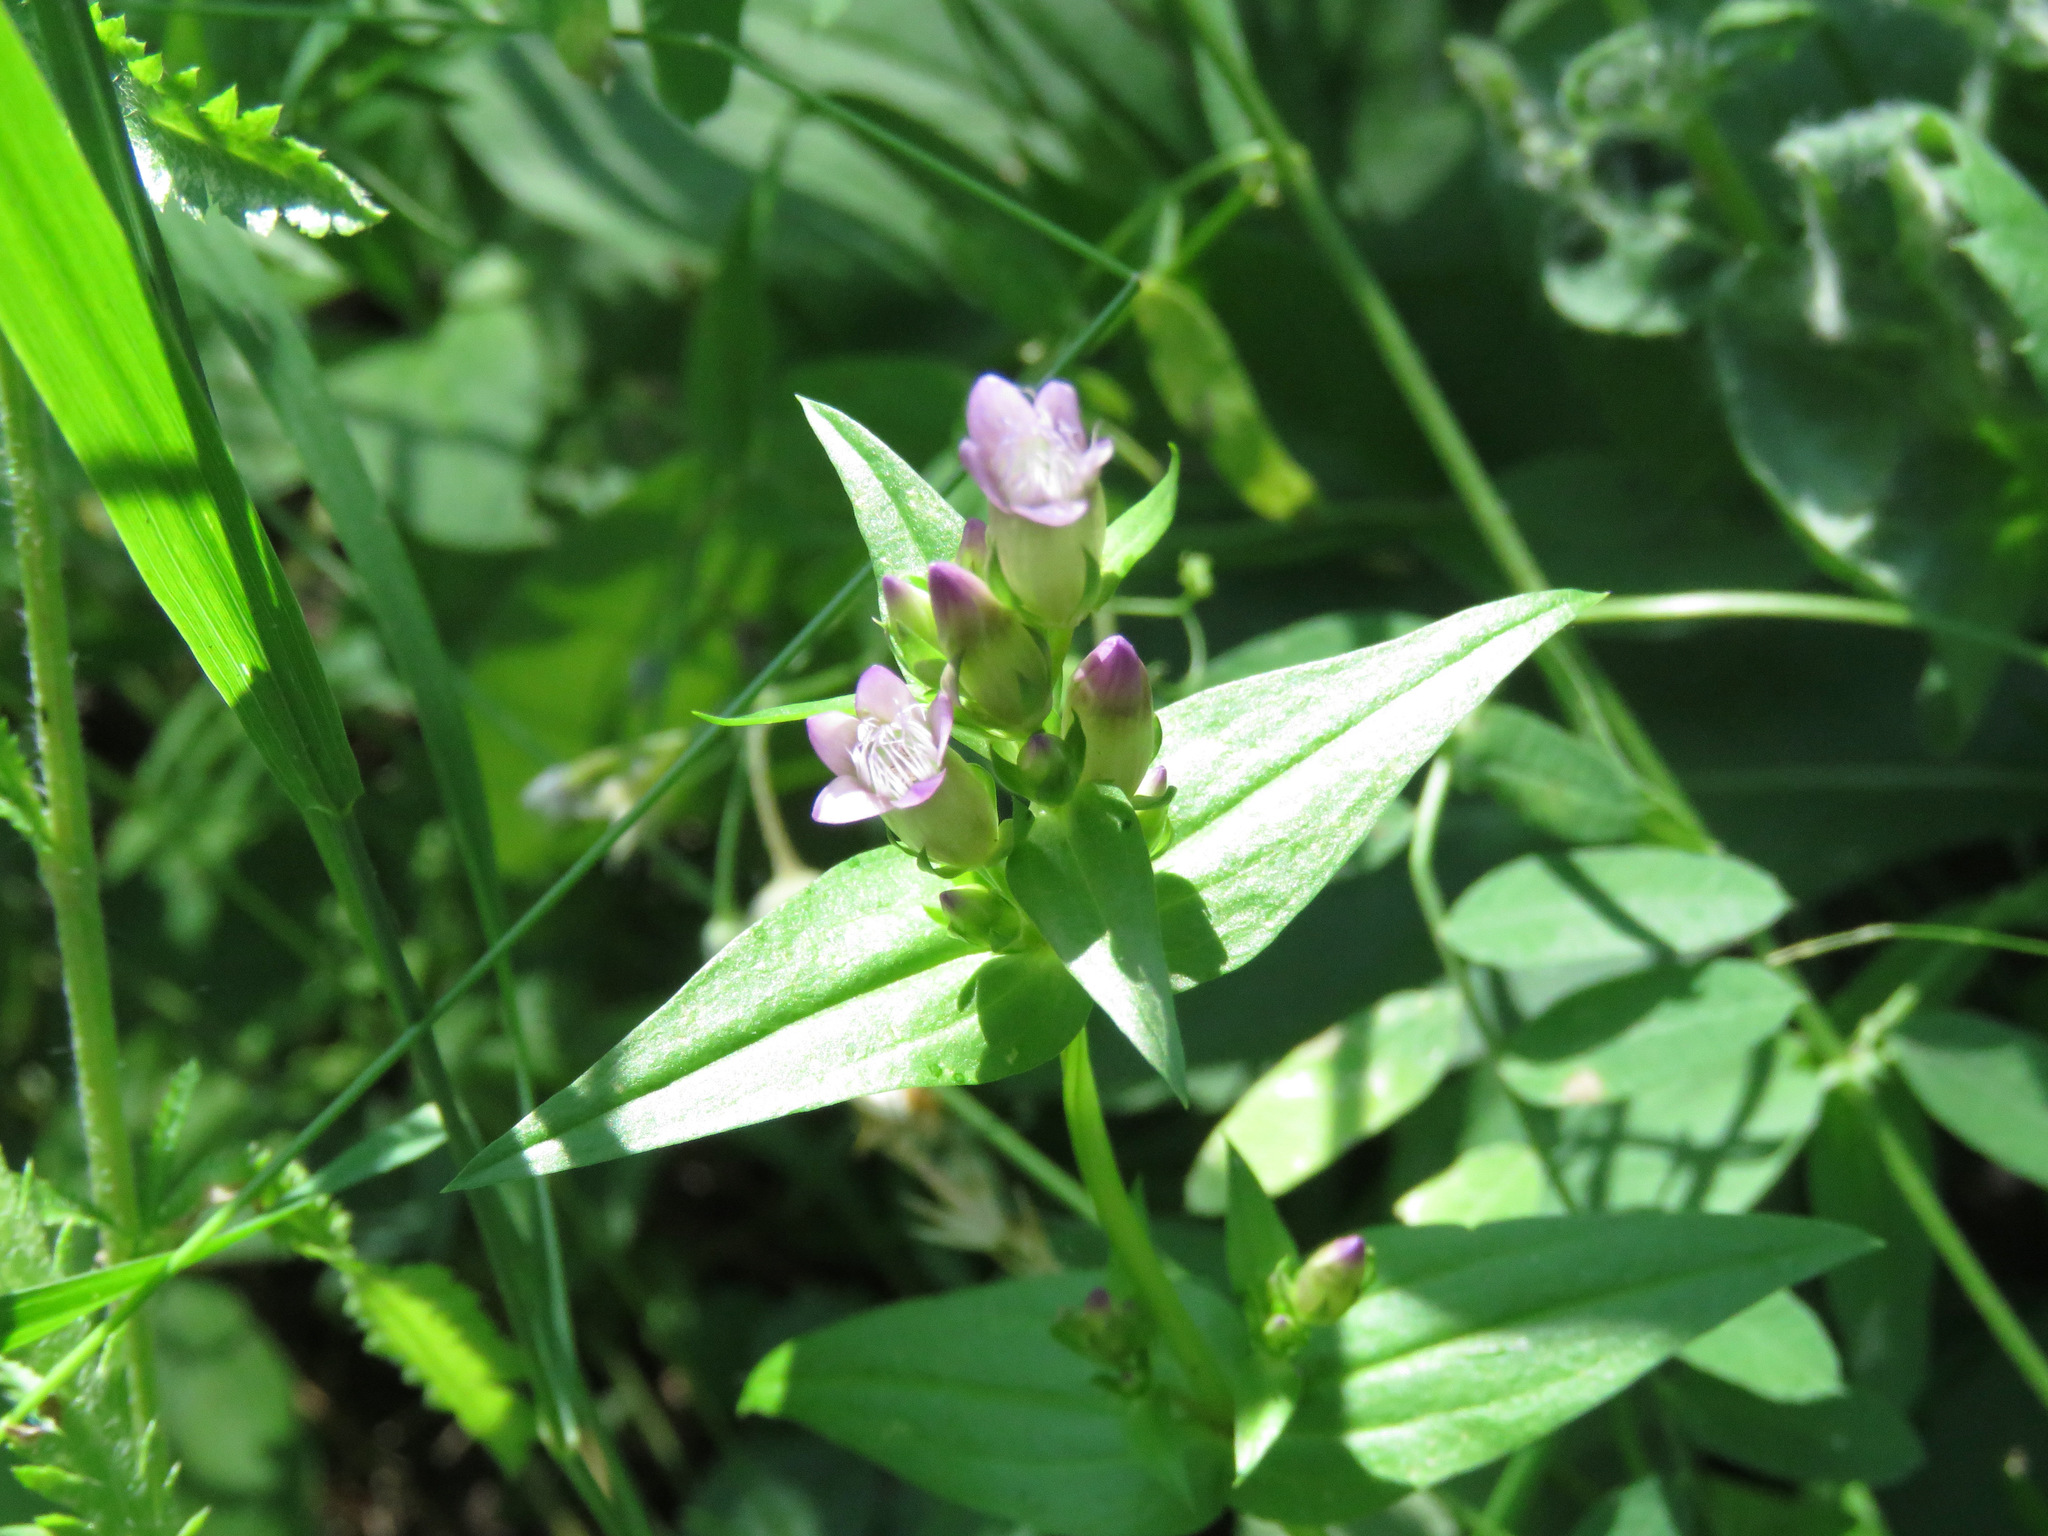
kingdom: Plantae
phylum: Tracheophyta
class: Magnoliopsida
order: Gentianales
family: Gentianaceae
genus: Gentianella
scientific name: Gentianella amarella
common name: Autumn gentian
